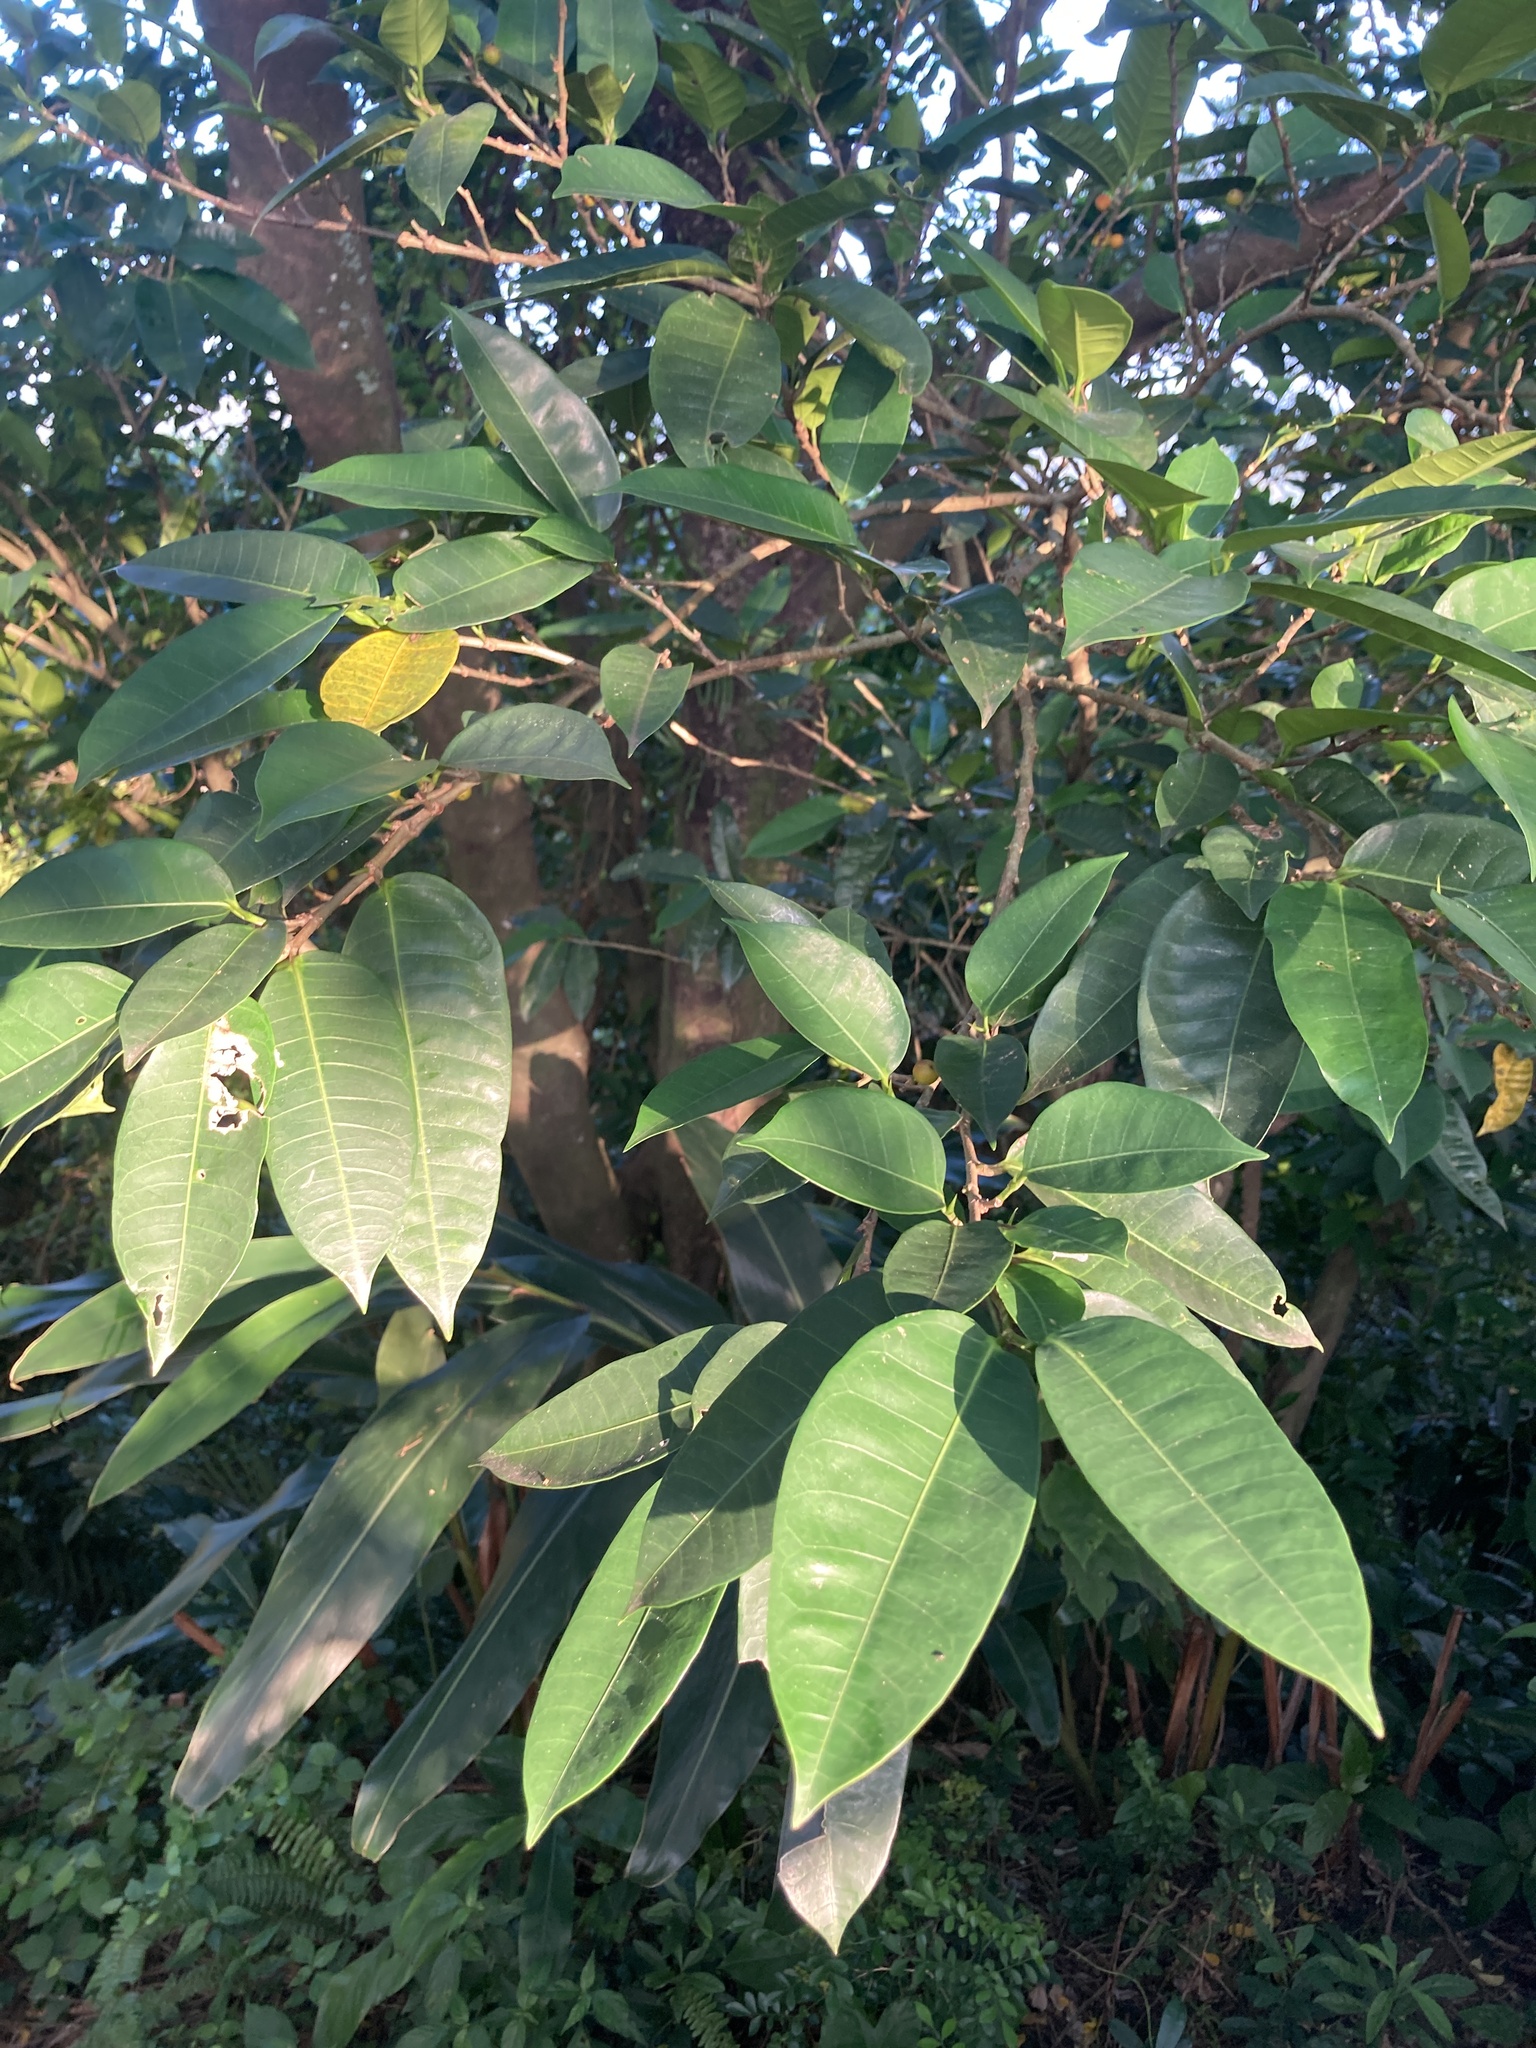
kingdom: Plantae
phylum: Tracheophyta
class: Magnoliopsida
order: Rosales
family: Moraceae
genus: Ficus
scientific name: Ficus virgata
